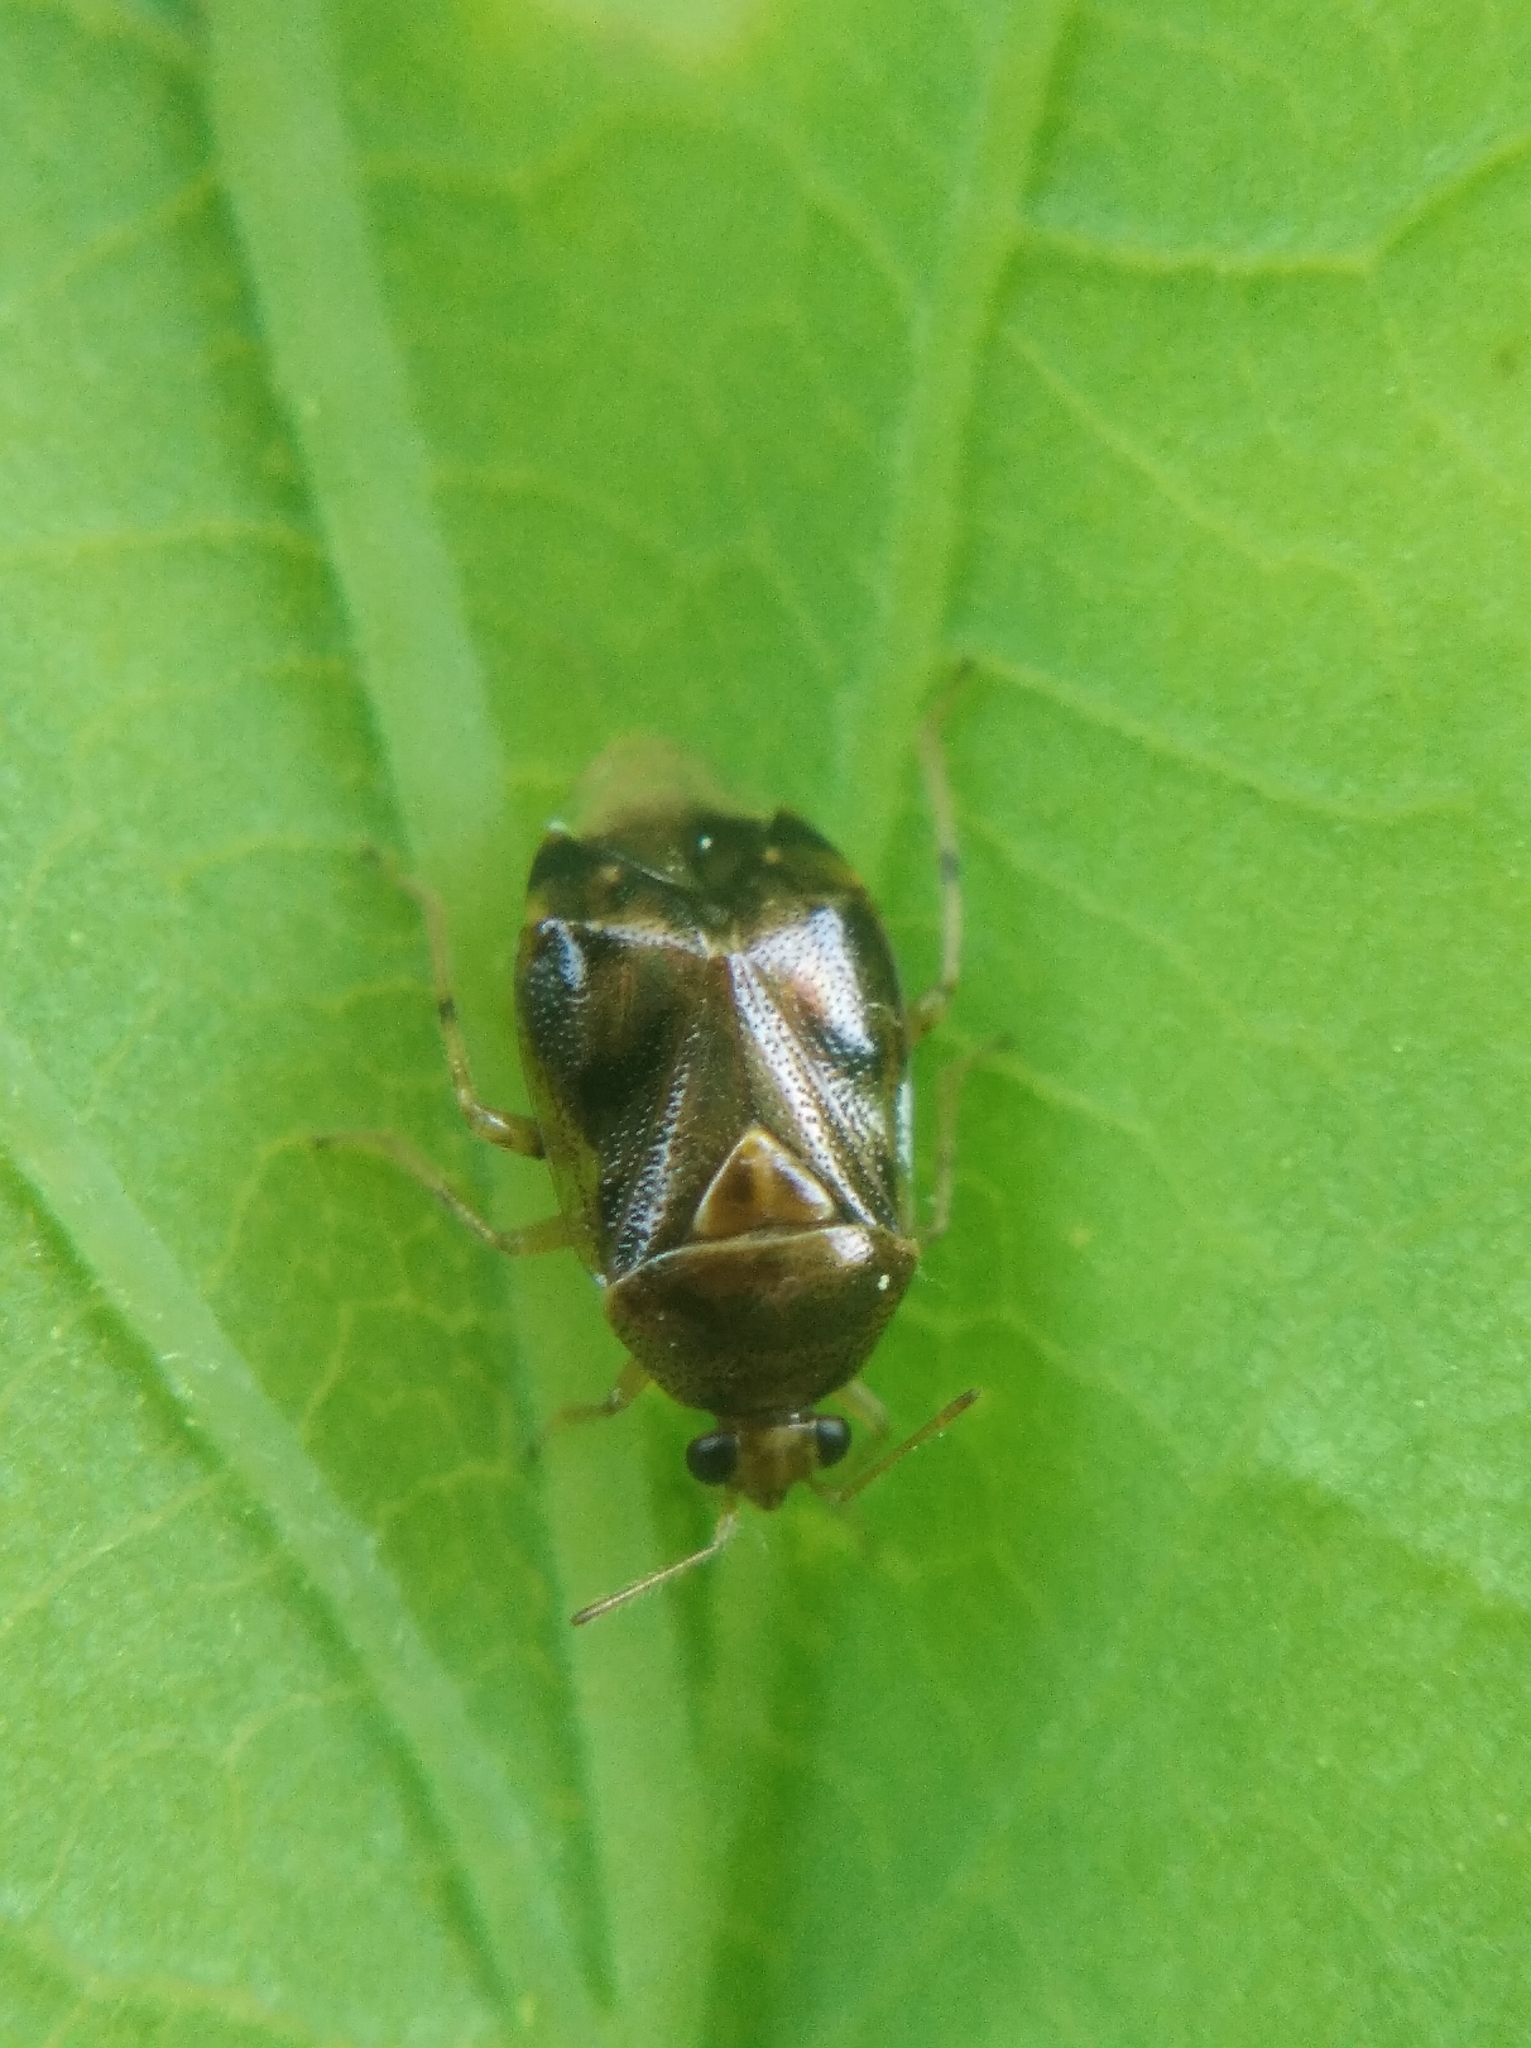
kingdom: Animalia
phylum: Arthropoda
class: Insecta
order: Hemiptera
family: Miridae
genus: Deraeocoris
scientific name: Deraeocoris lutescens
